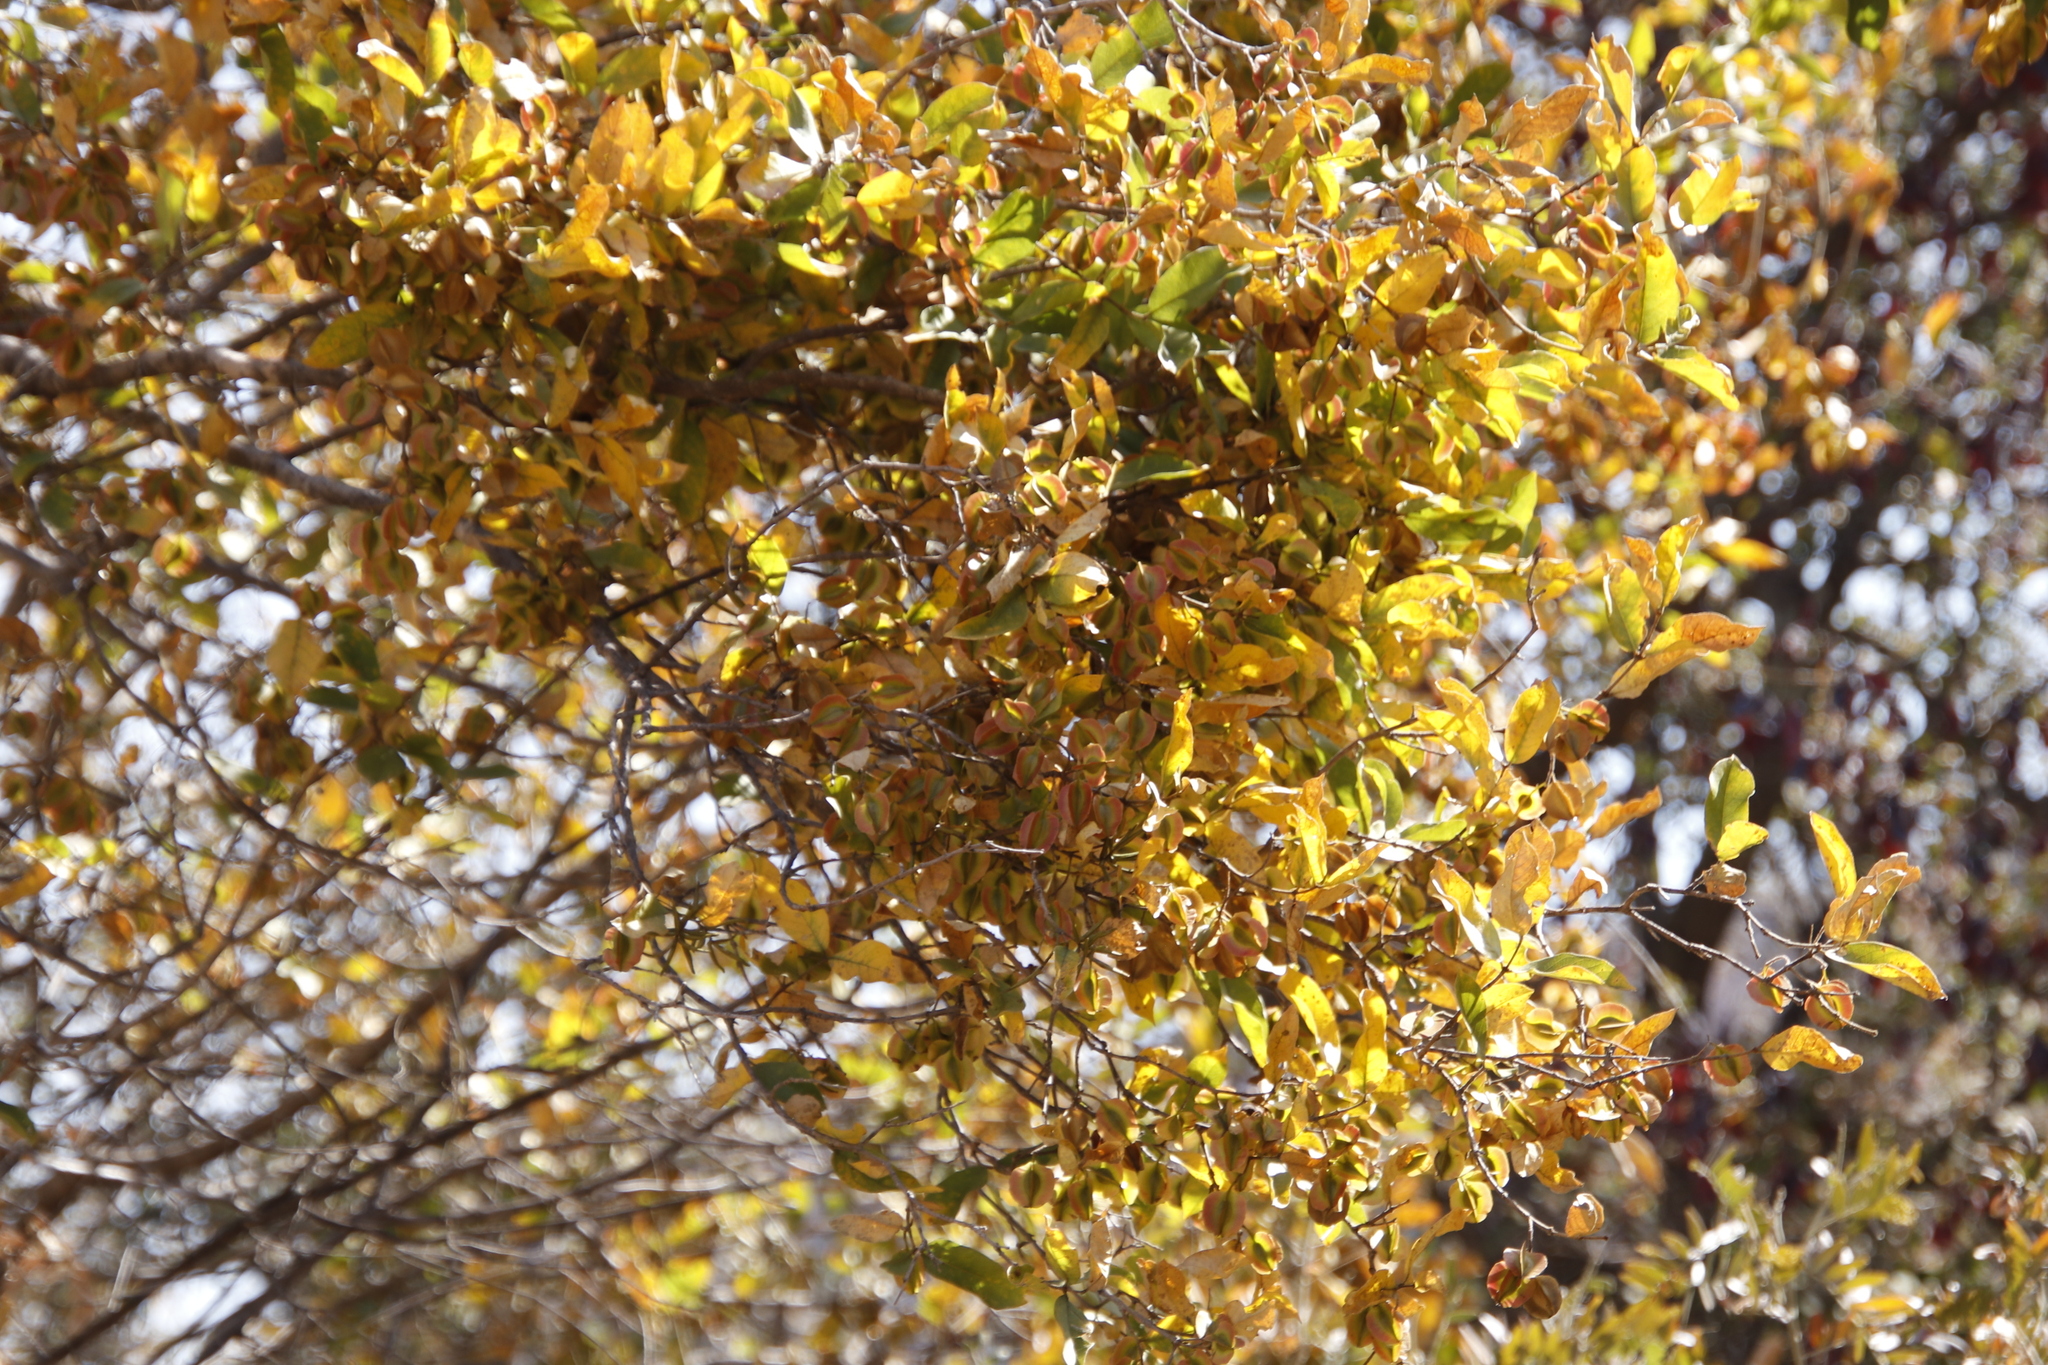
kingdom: Plantae
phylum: Tracheophyta
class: Magnoliopsida
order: Myrtales
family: Combretaceae
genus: Combretum
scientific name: Combretum apiculatum
